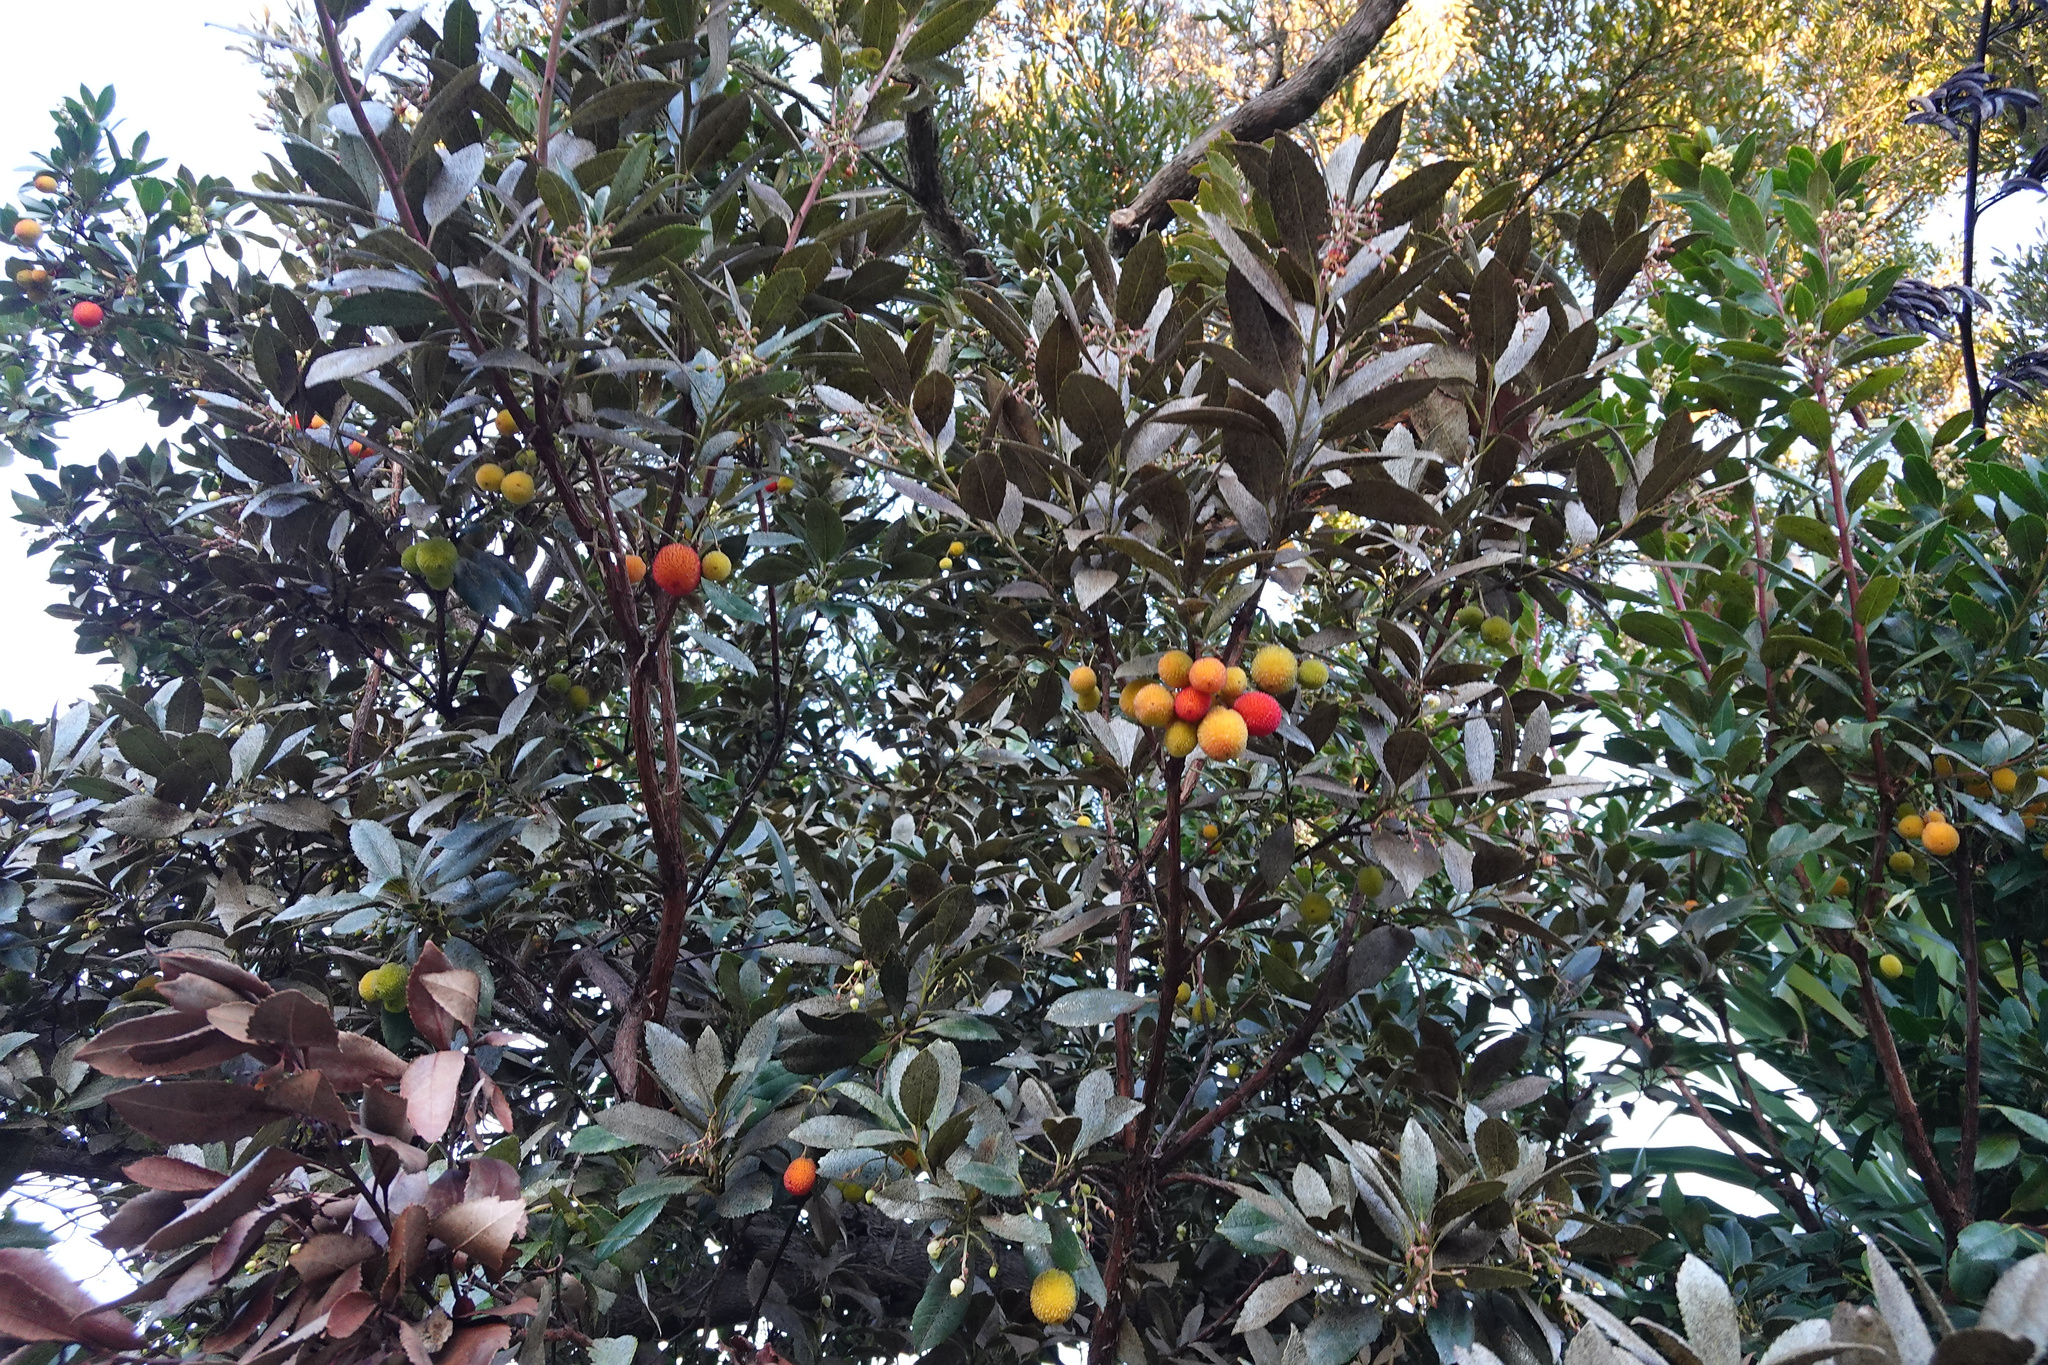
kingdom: Plantae
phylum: Tracheophyta
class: Magnoliopsida
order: Ericales
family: Ericaceae
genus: Arbutus
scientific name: Arbutus unedo
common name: Strawberry-tree
